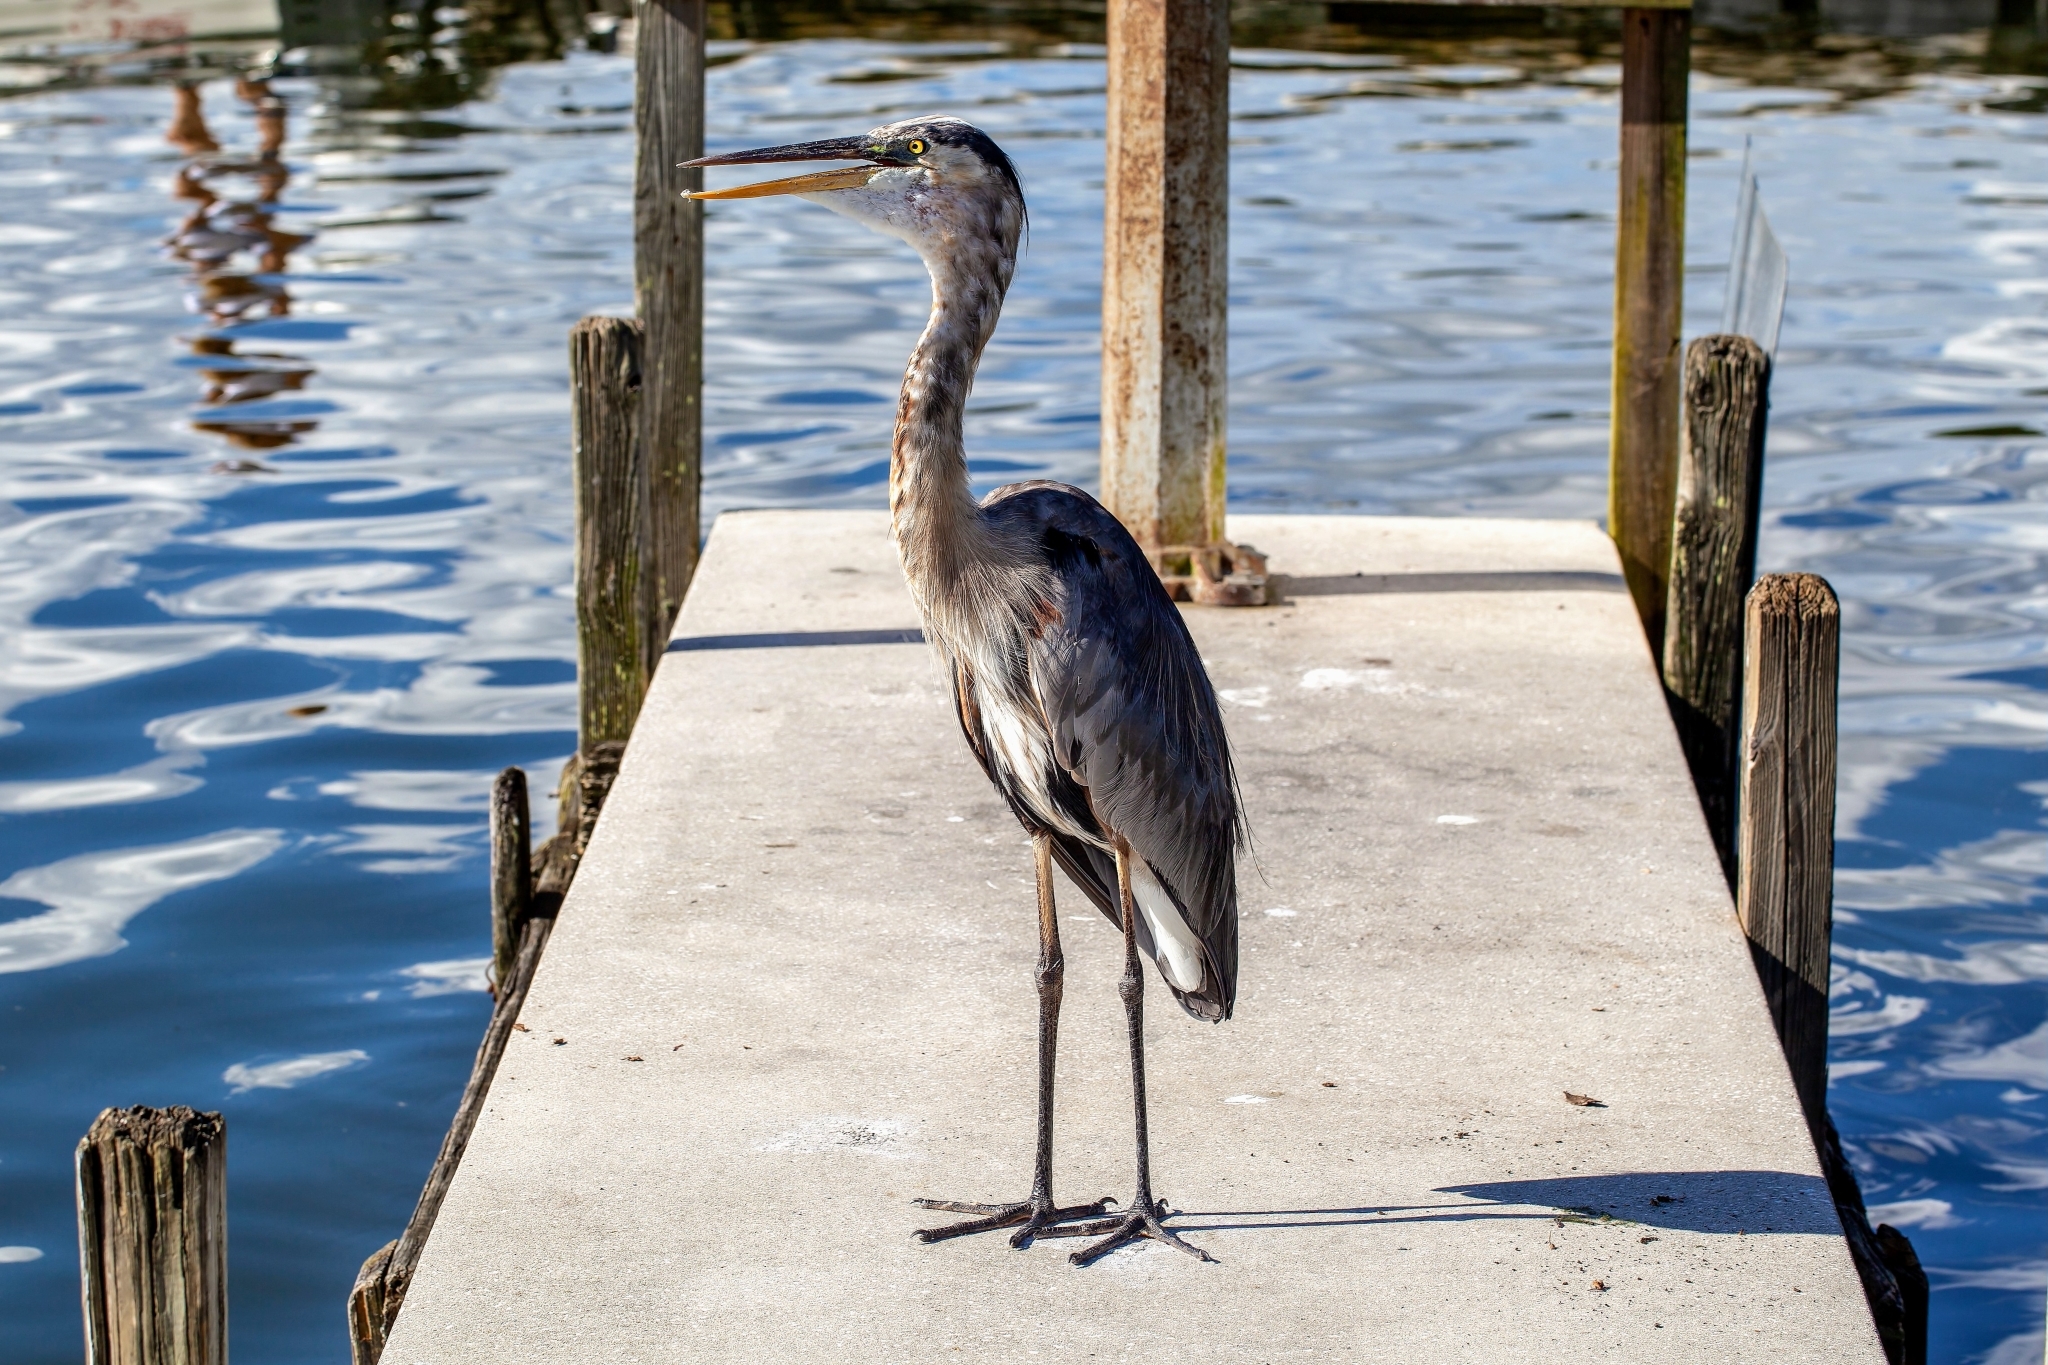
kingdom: Animalia
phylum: Chordata
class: Aves
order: Pelecaniformes
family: Ardeidae
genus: Ardea
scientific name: Ardea herodias
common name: Great blue heron
